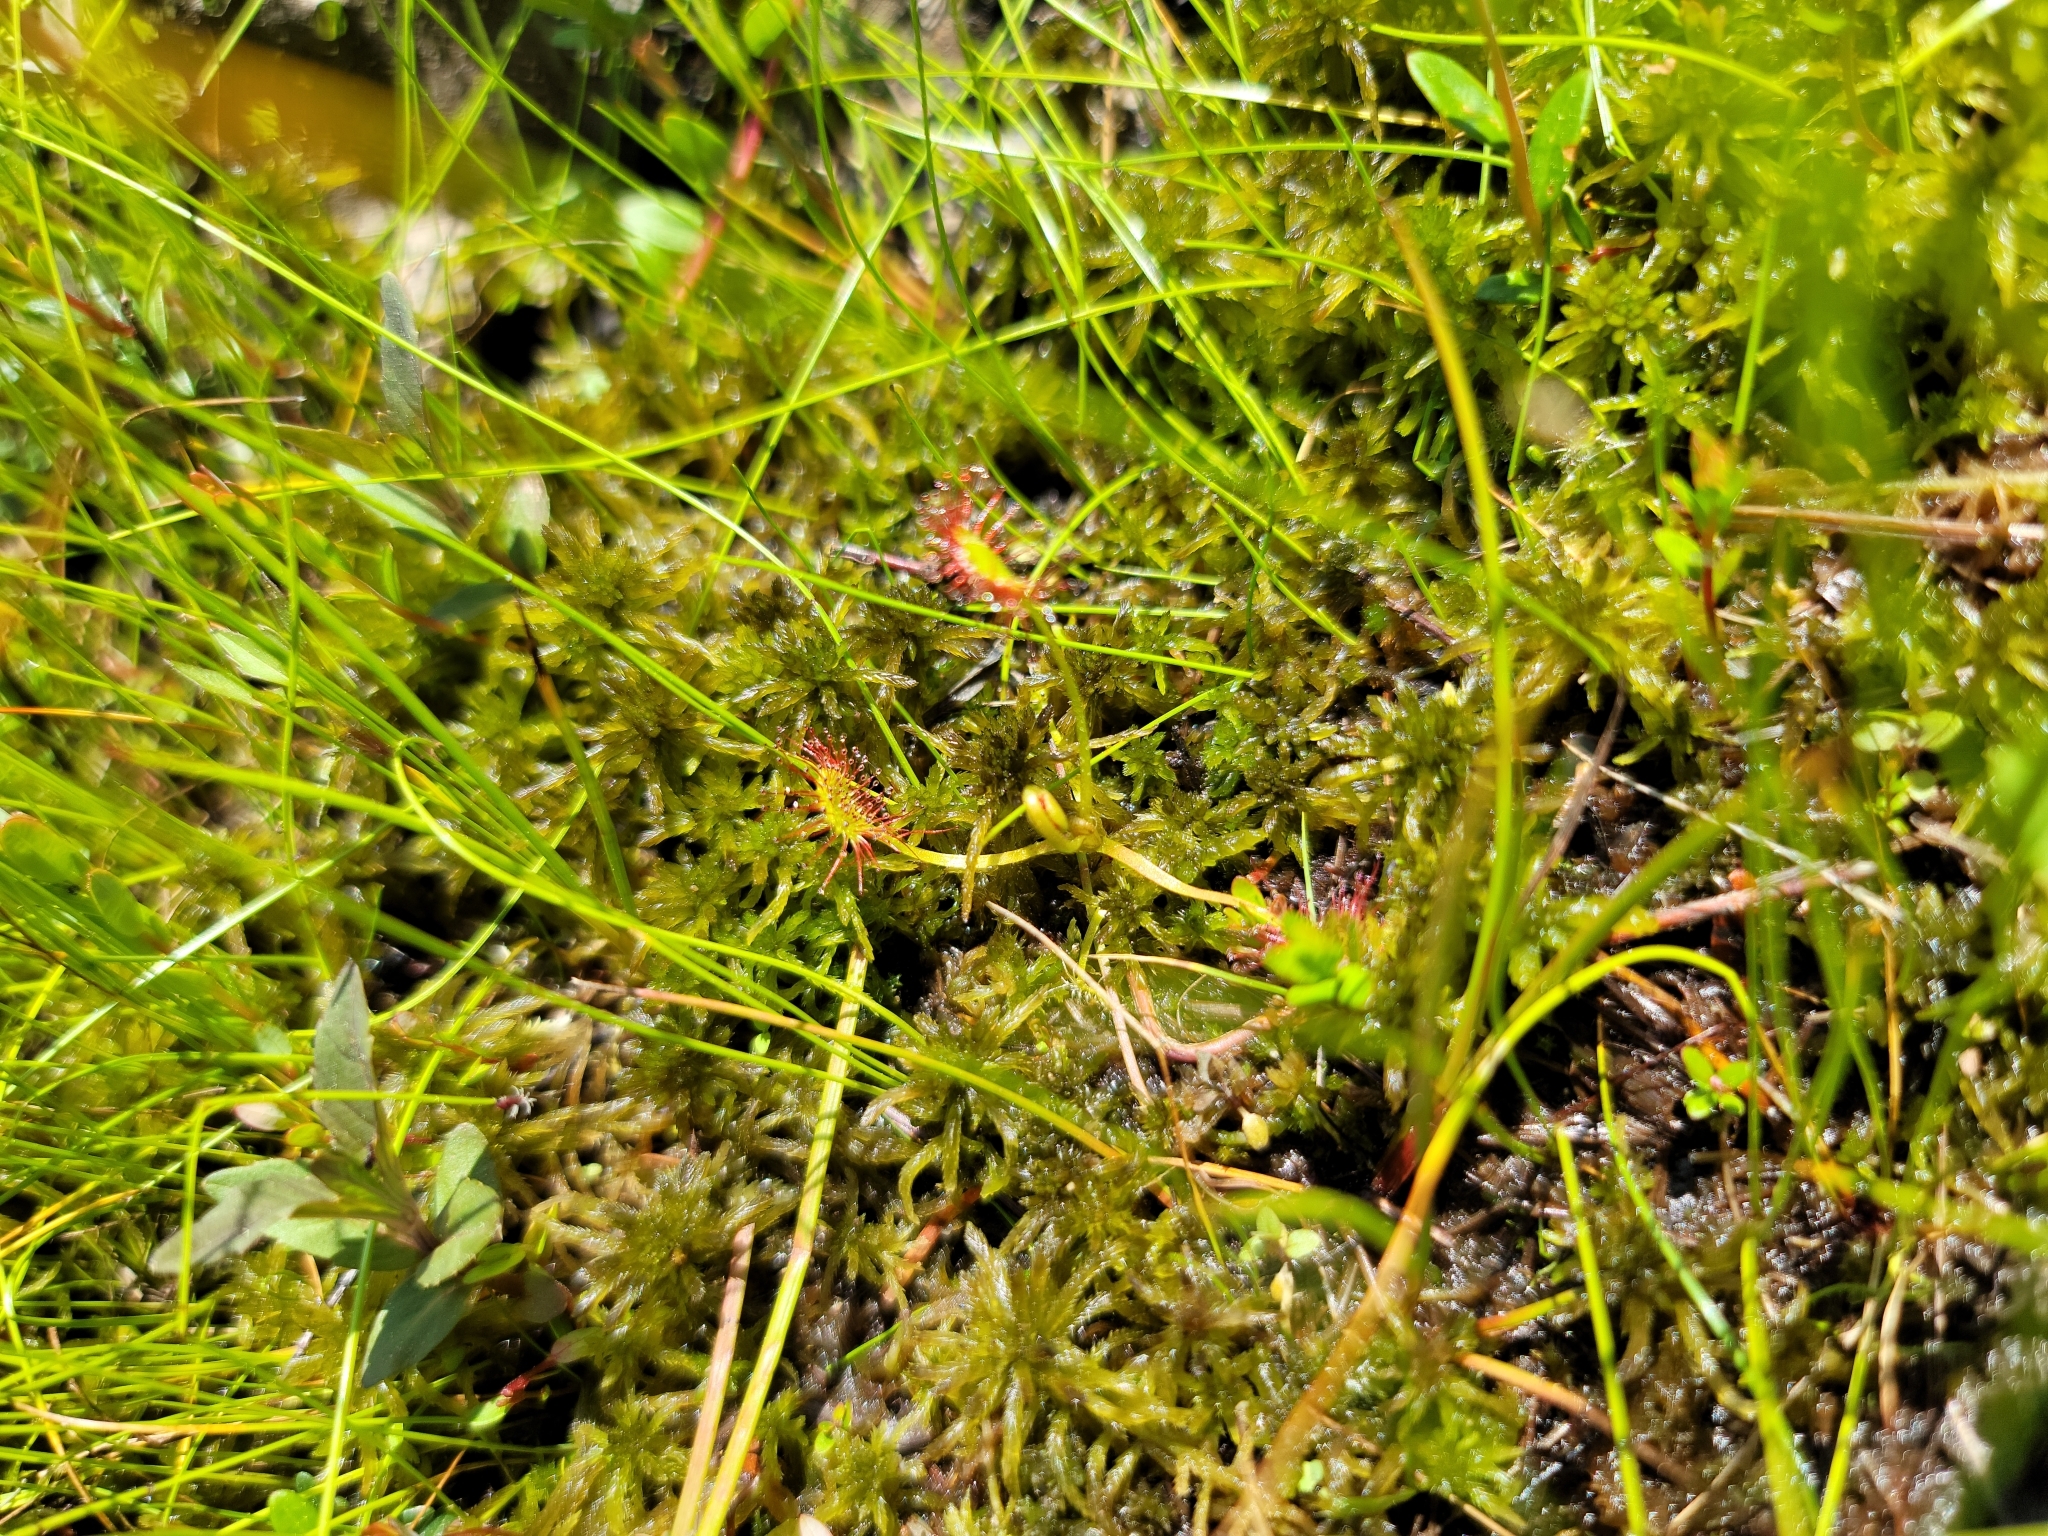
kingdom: Plantae
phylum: Tracheophyta
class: Magnoliopsida
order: Caryophyllales
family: Droseraceae
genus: Drosera
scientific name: Drosera rotundifolia
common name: Round-leaved sundew
